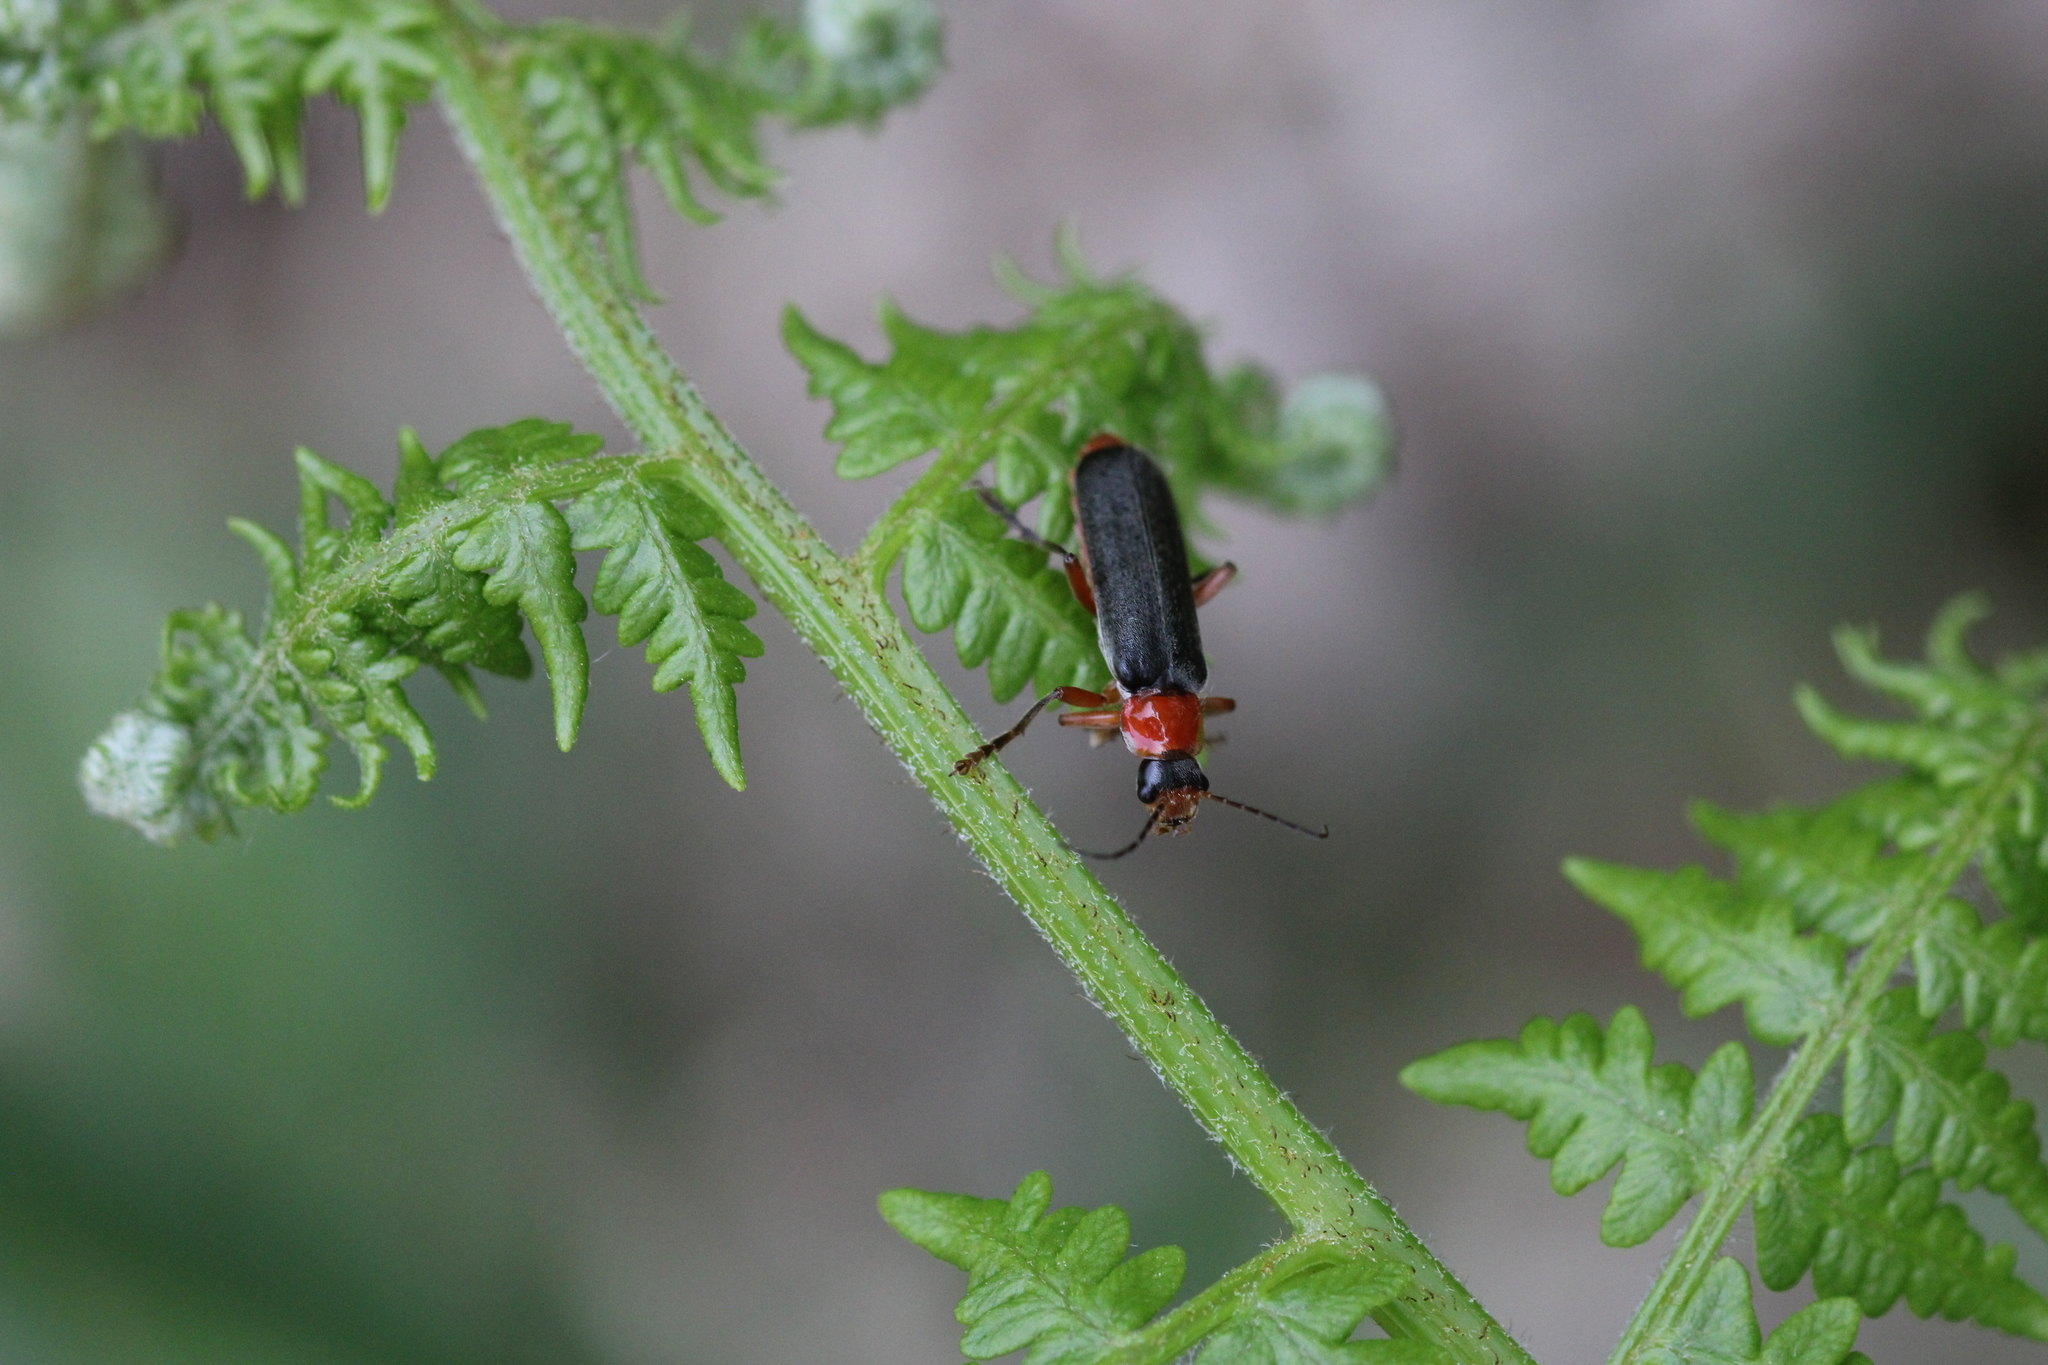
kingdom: Animalia
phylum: Arthropoda
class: Insecta
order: Coleoptera
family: Cantharidae
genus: Cantharis
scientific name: Cantharis pellucida
